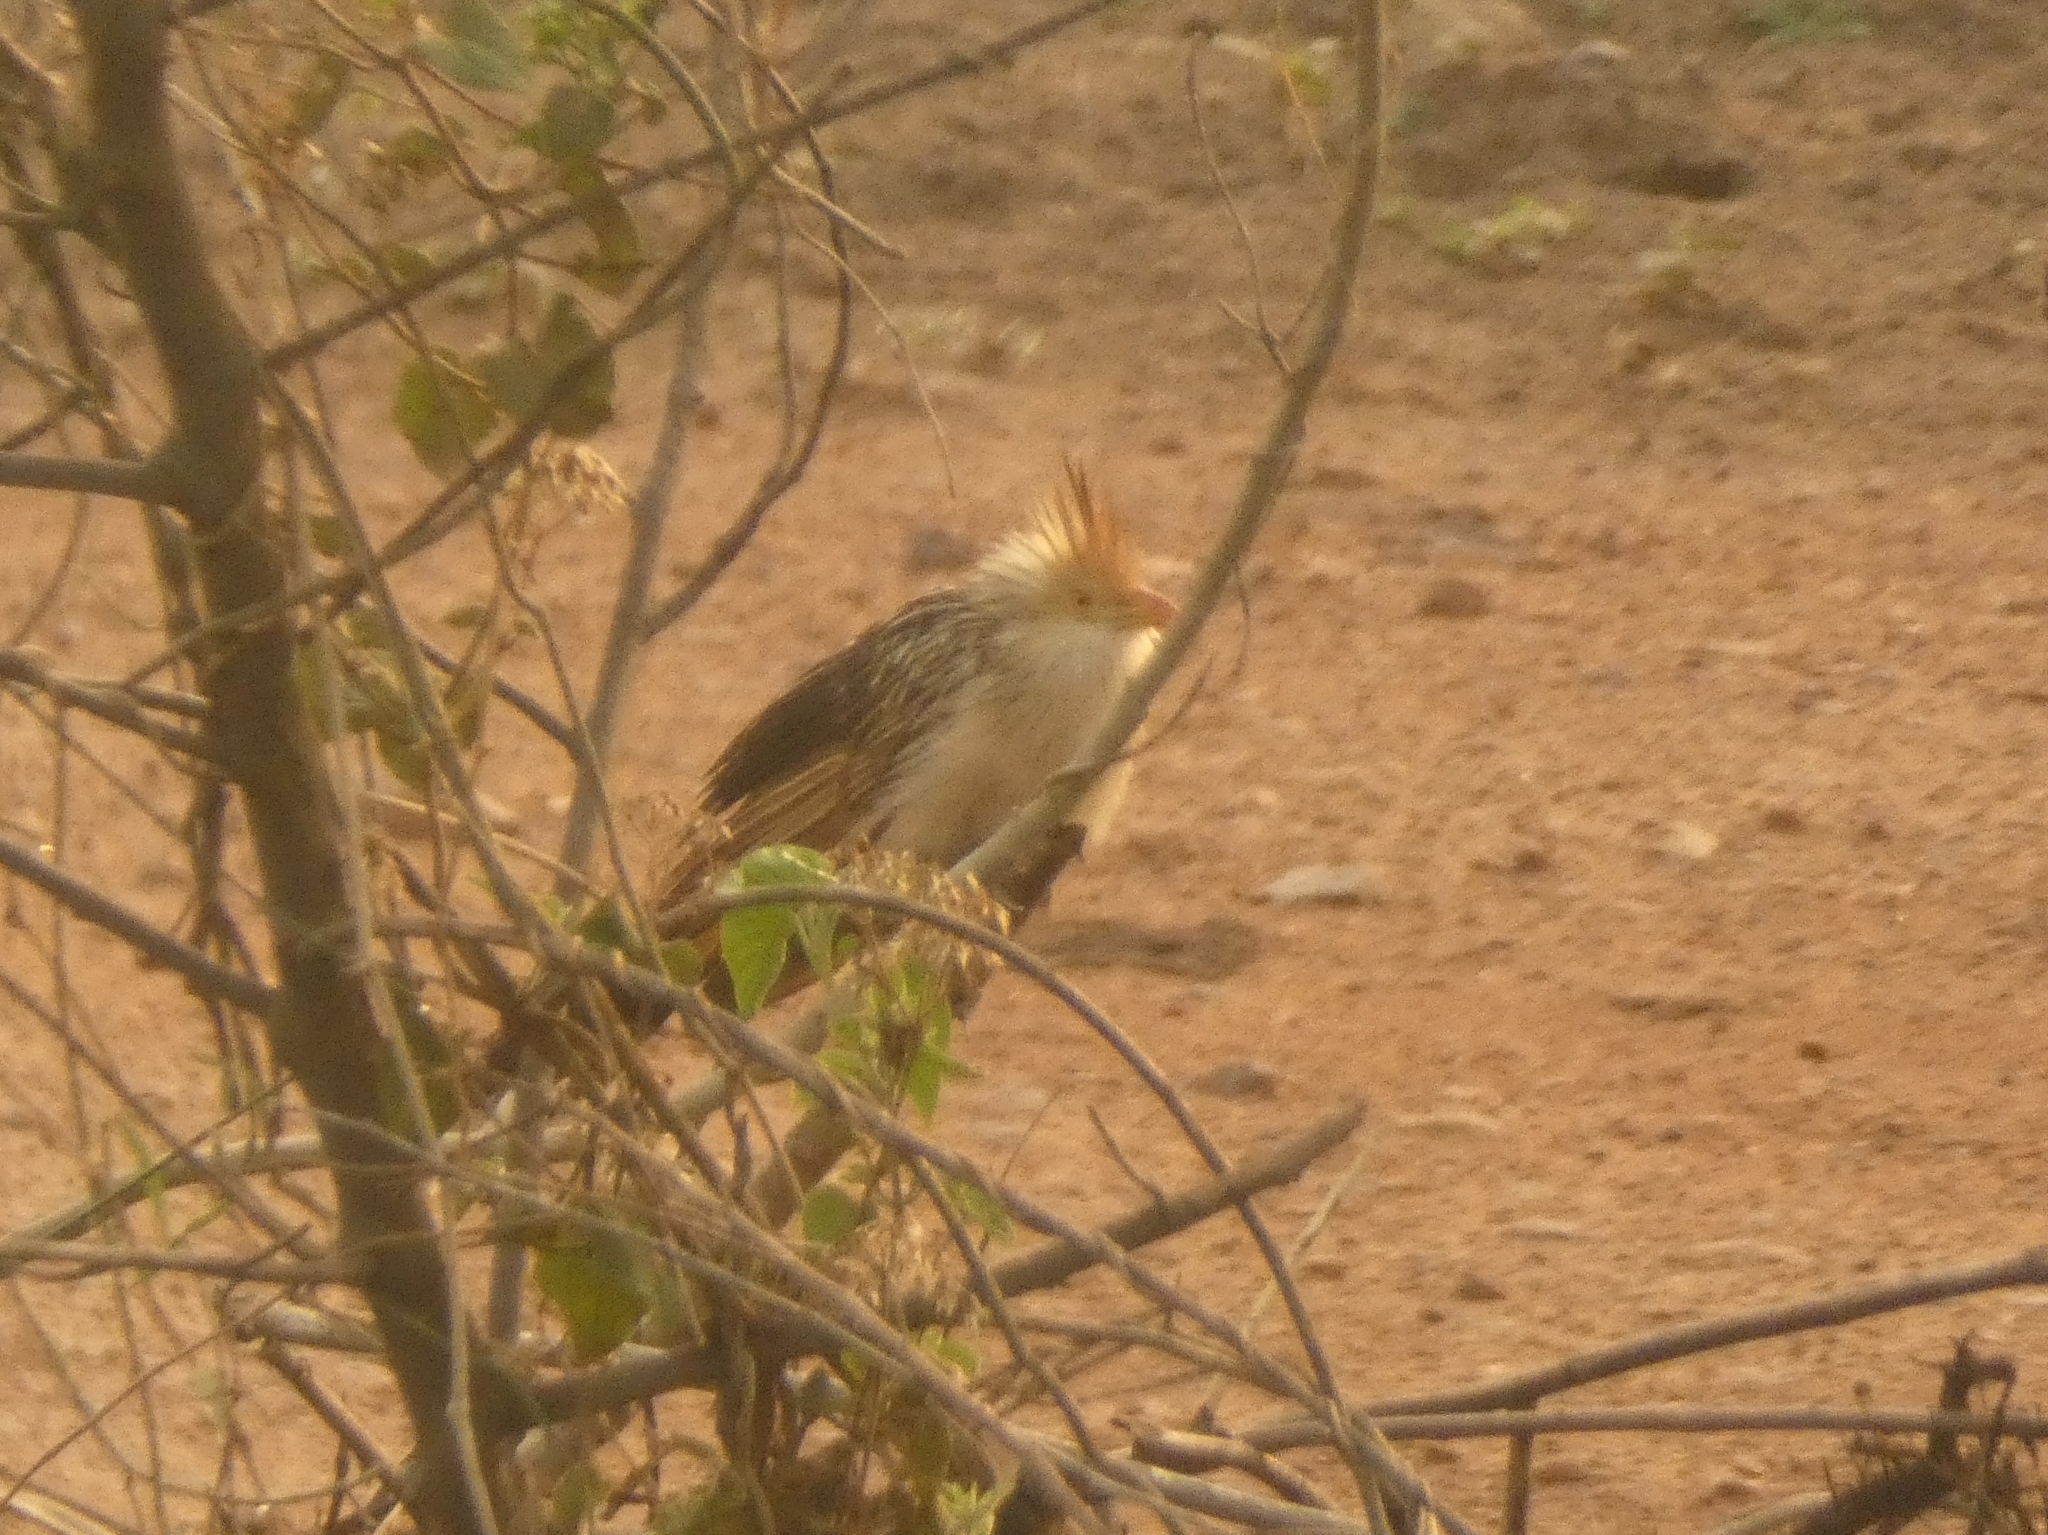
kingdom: Animalia
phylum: Chordata
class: Aves
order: Cuculiformes
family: Cuculidae
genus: Guira
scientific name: Guira guira
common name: Guira cuckoo
